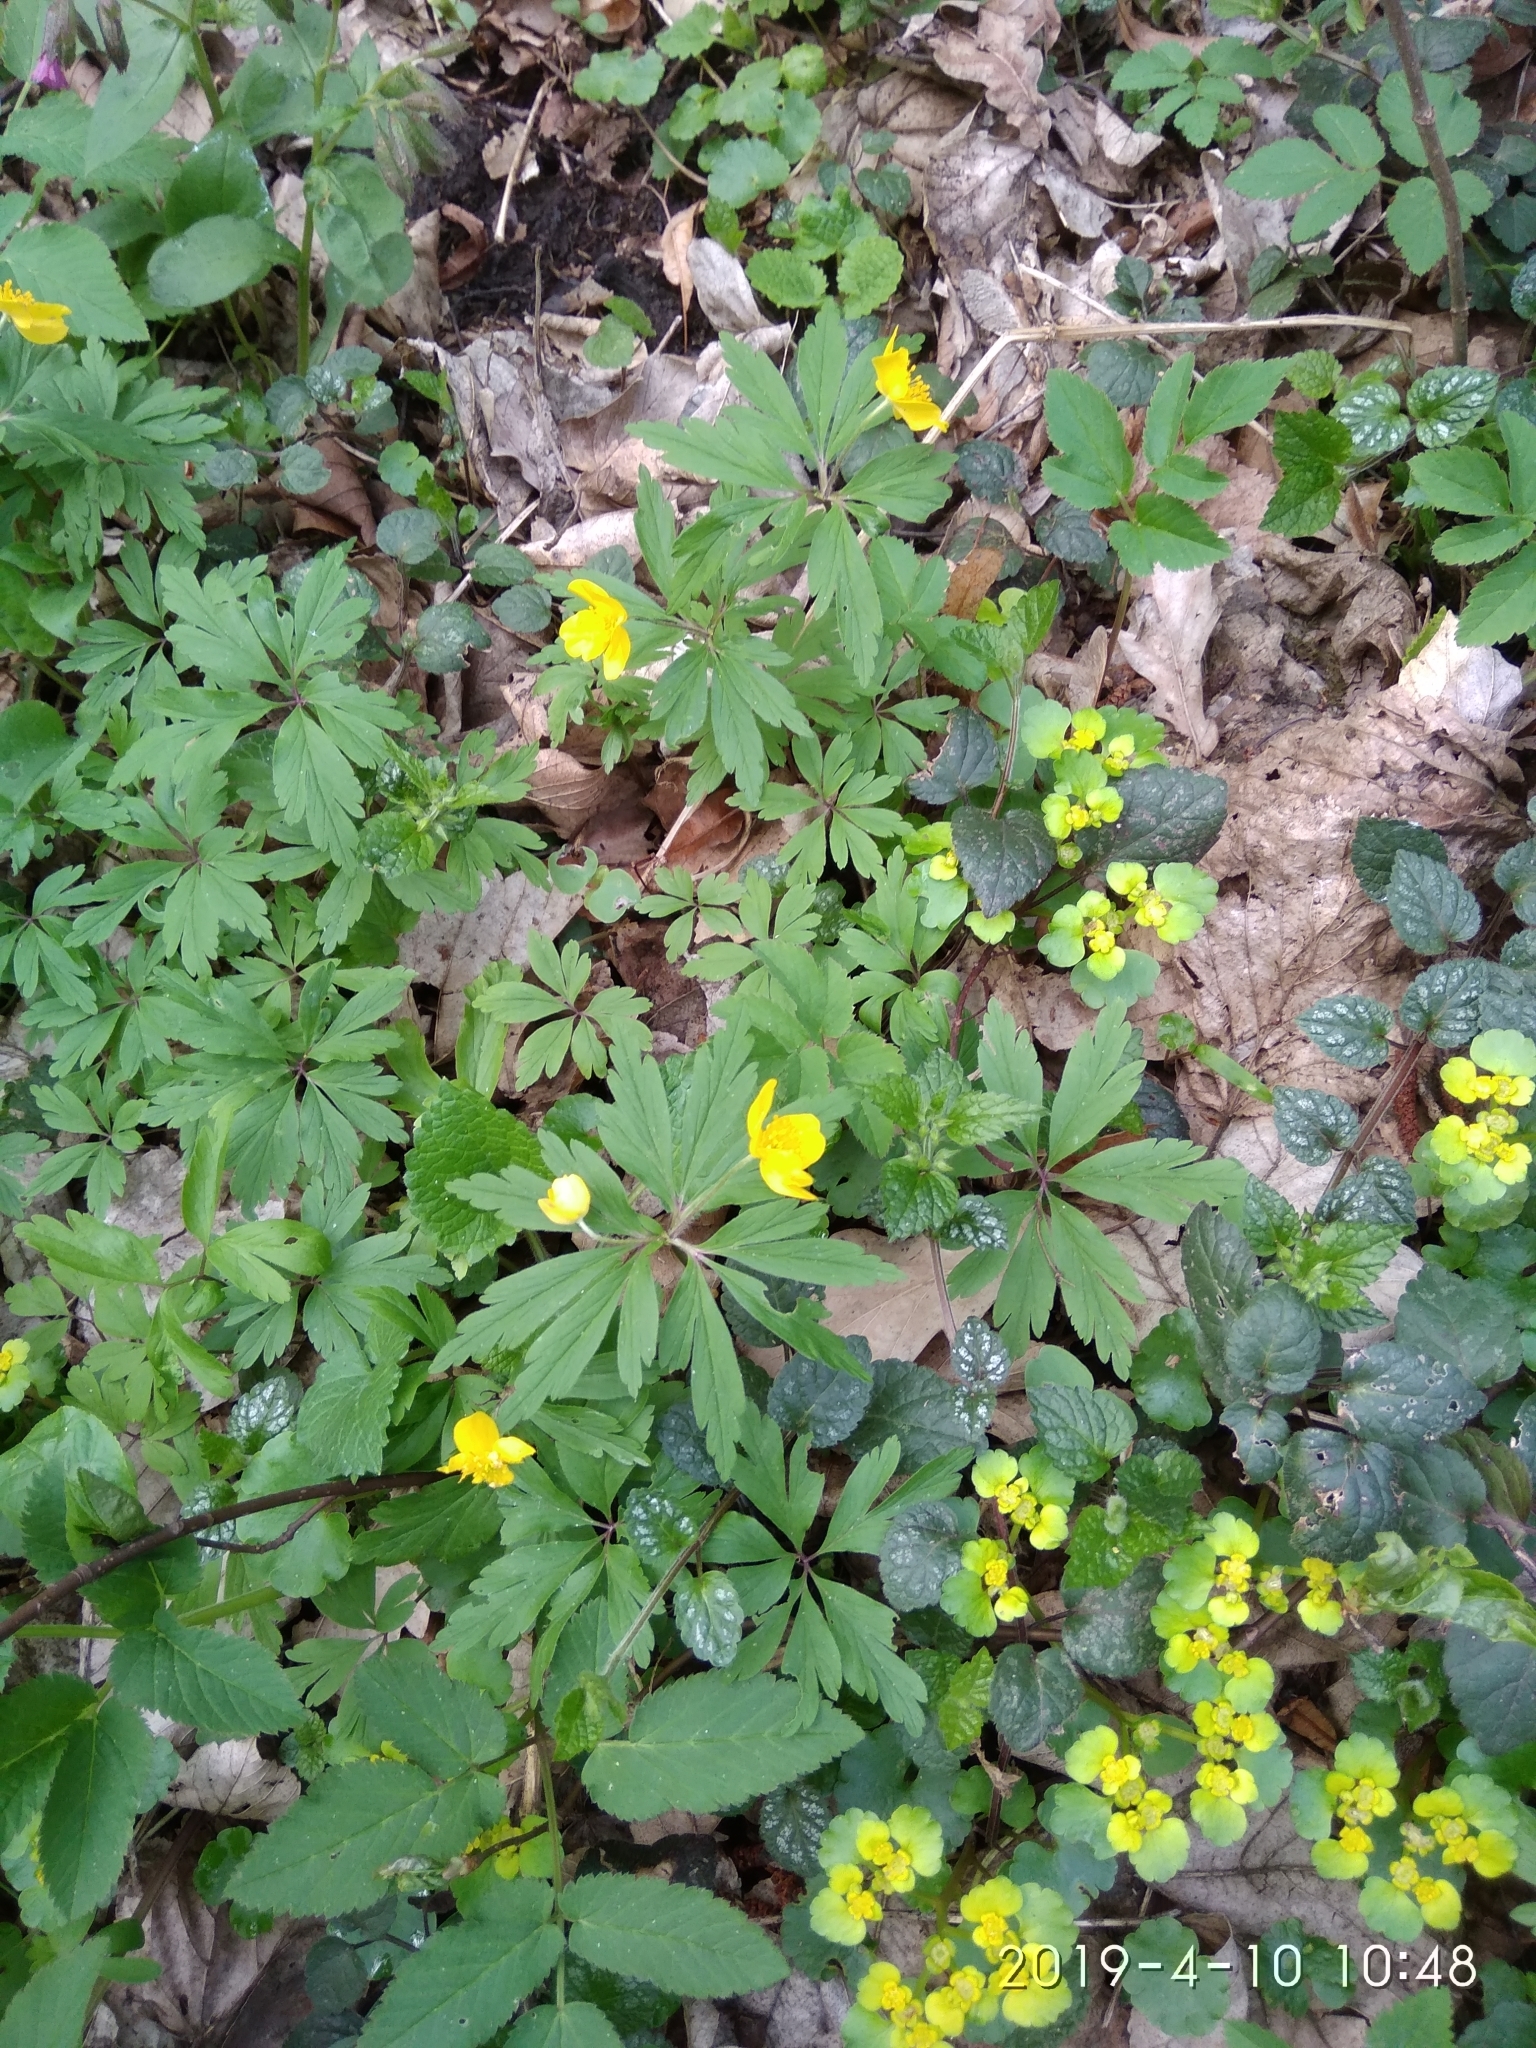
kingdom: Plantae
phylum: Tracheophyta
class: Magnoliopsida
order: Ranunculales
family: Ranunculaceae
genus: Anemone
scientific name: Anemone ranunculoides
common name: Yellow anemone
